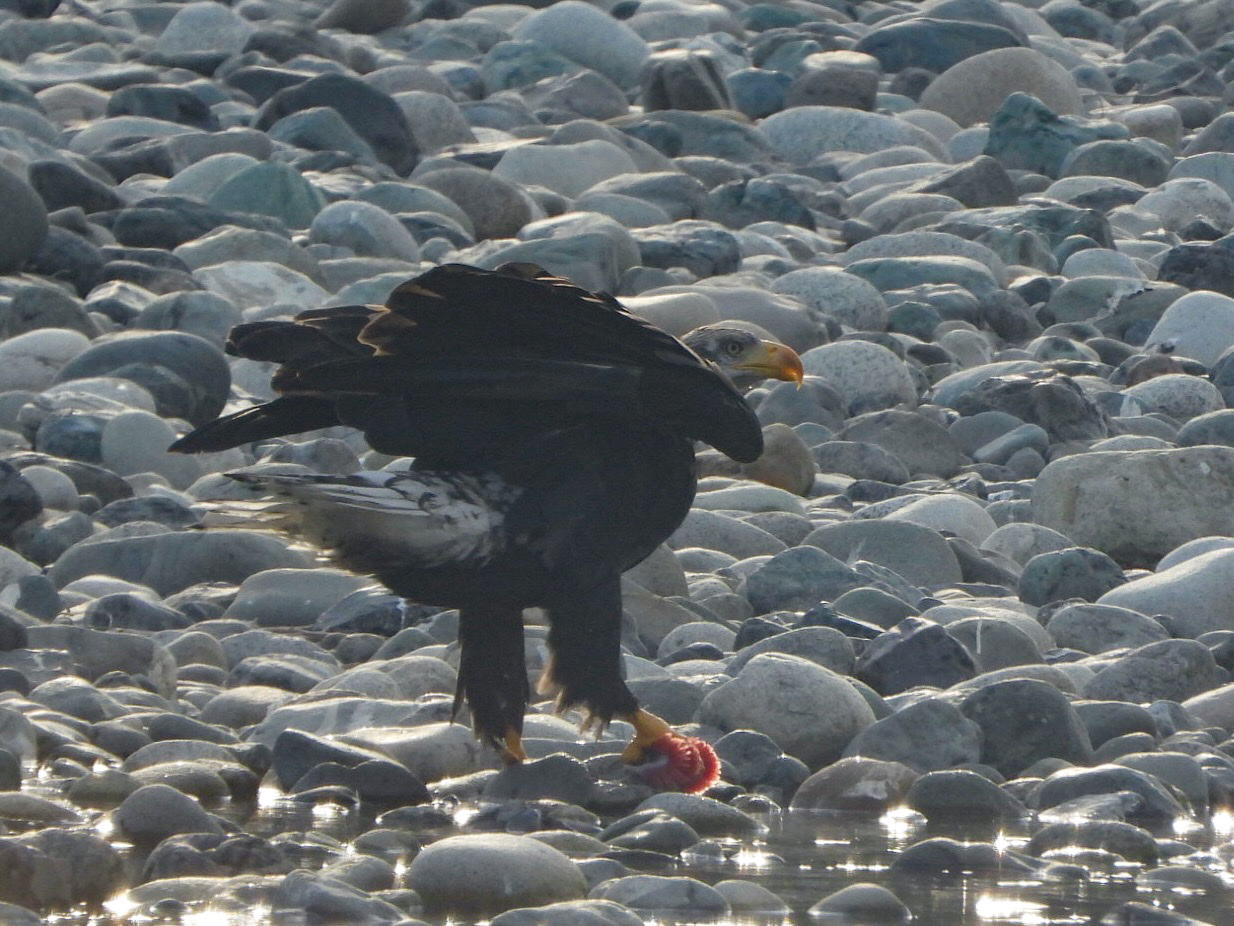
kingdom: Animalia
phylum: Chordata
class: Aves
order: Accipitriformes
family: Accipitridae
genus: Haliaeetus
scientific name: Haliaeetus leucocephalus
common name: Bald eagle
